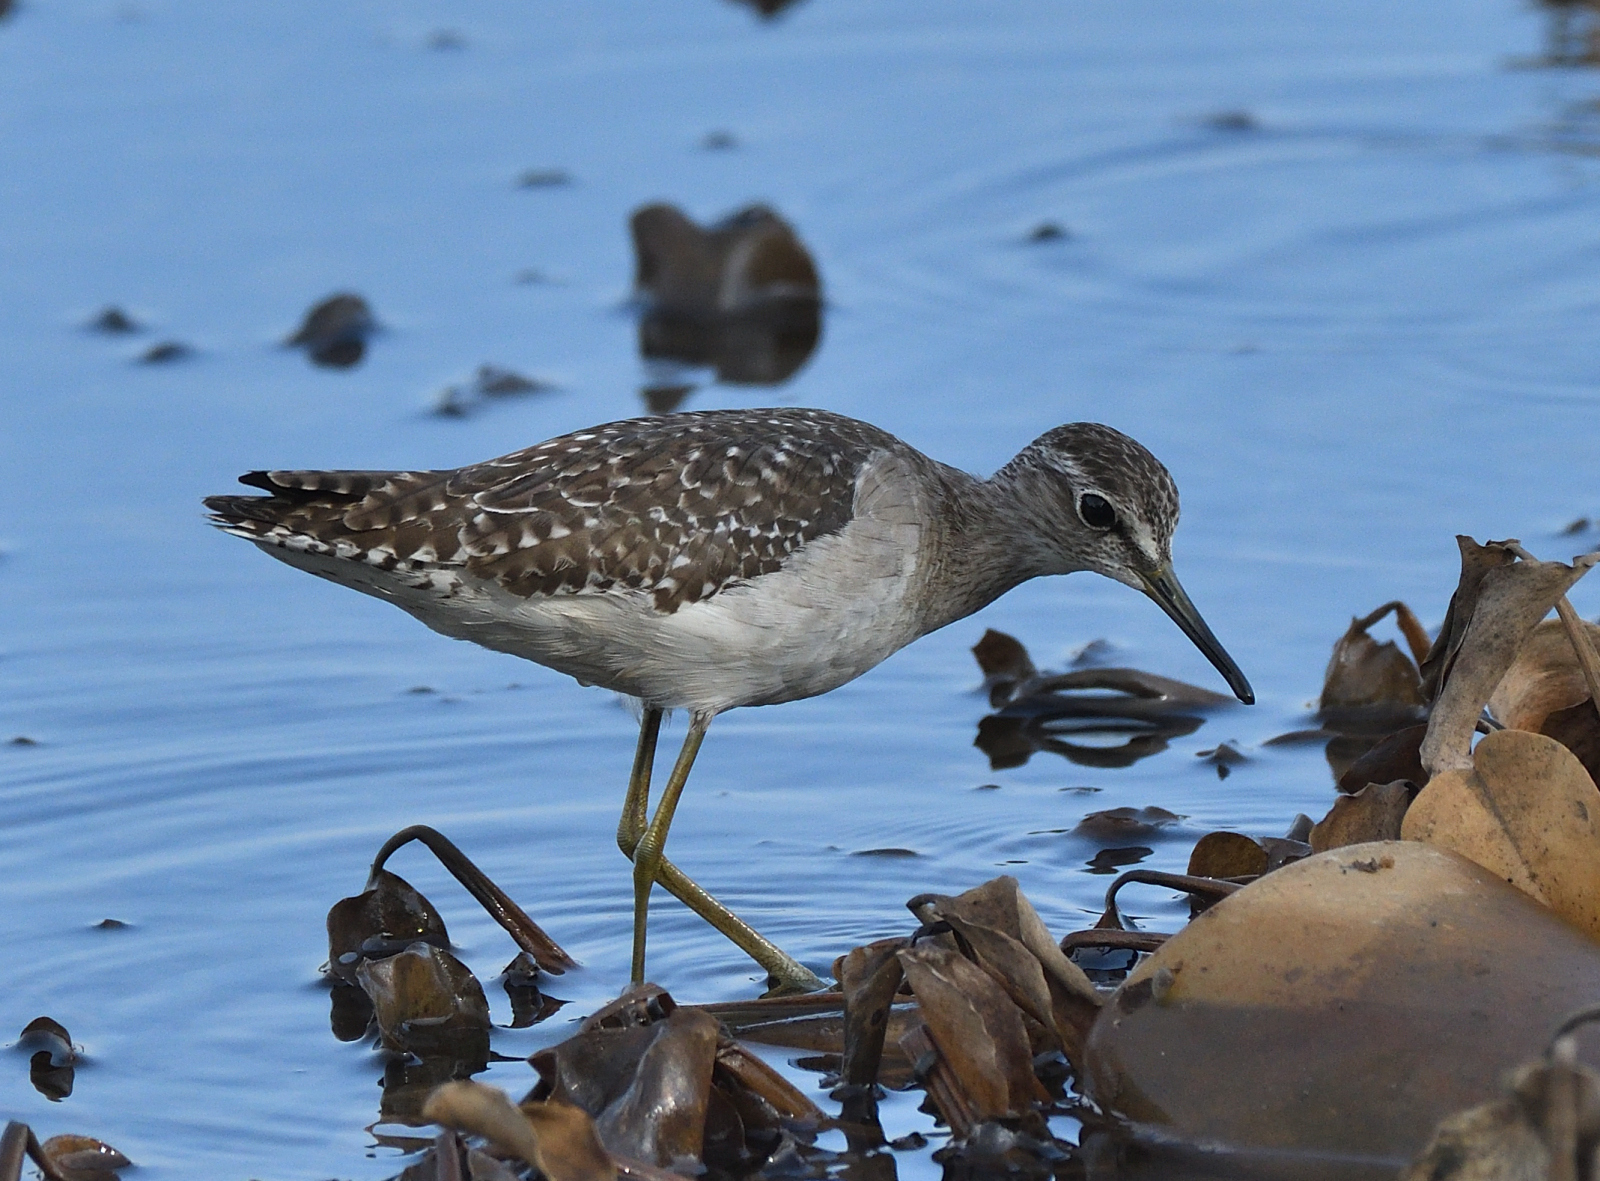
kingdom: Animalia
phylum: Chordata
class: Aves
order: Charadriiformes
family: Scolopacidae
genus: Tringa
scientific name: Tringa glareola
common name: Wood sandpiper
